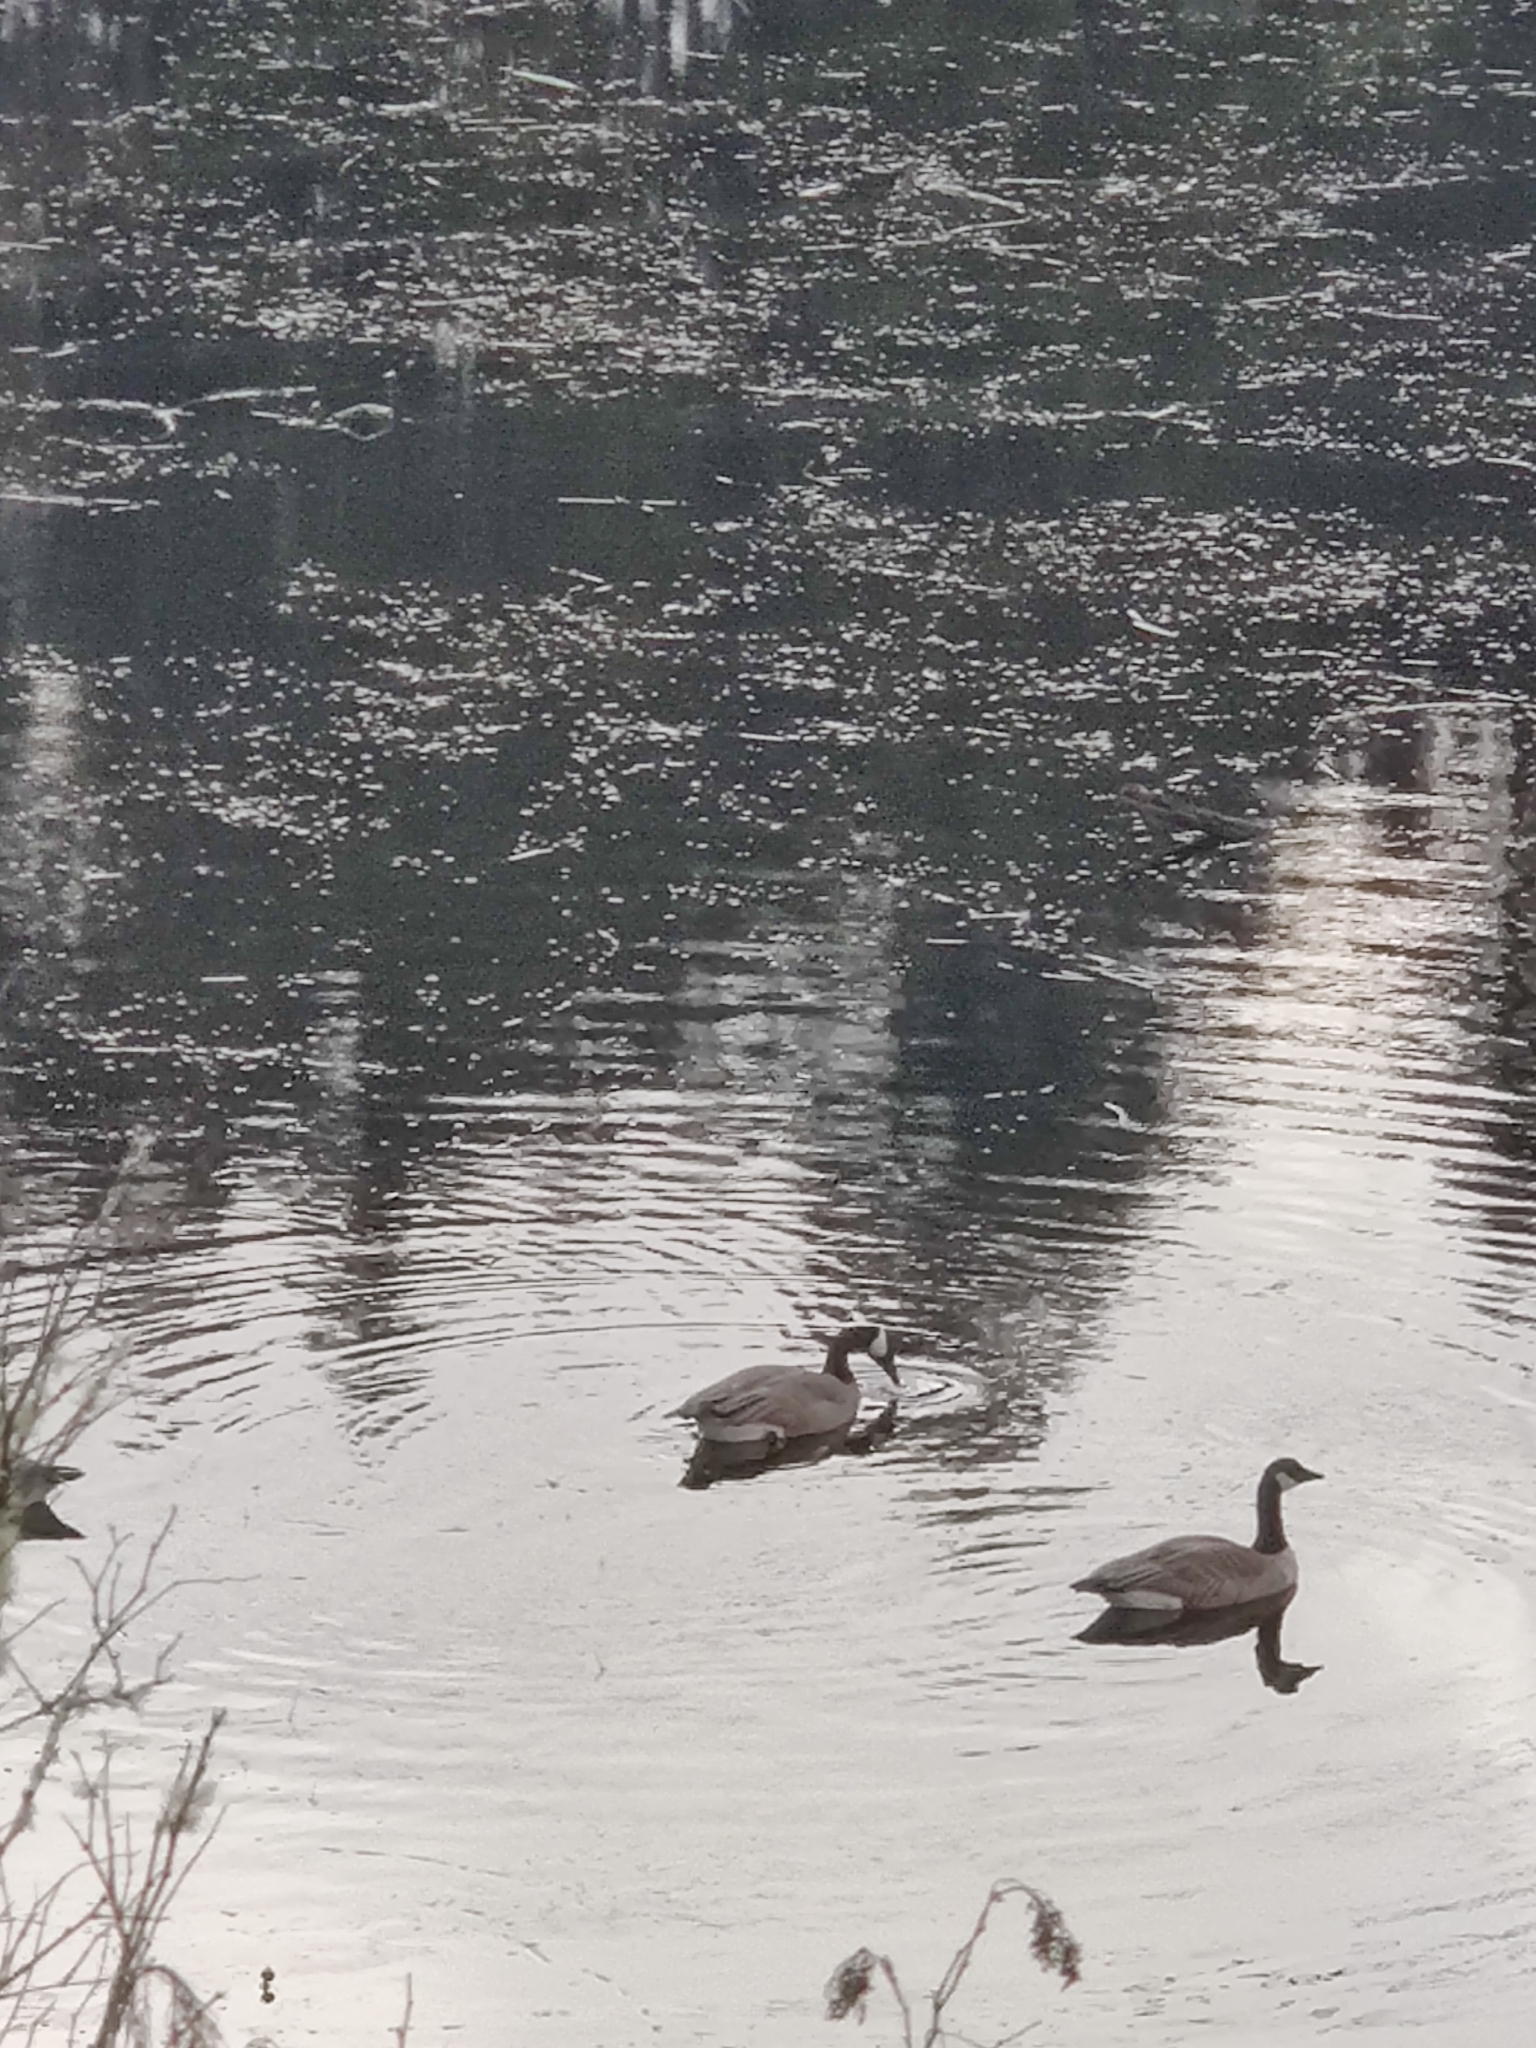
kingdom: Animalia
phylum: Chordata
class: Aves
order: Anseriformes
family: Anatidae
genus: Branta
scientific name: Branta canadensis
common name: Canada goose
